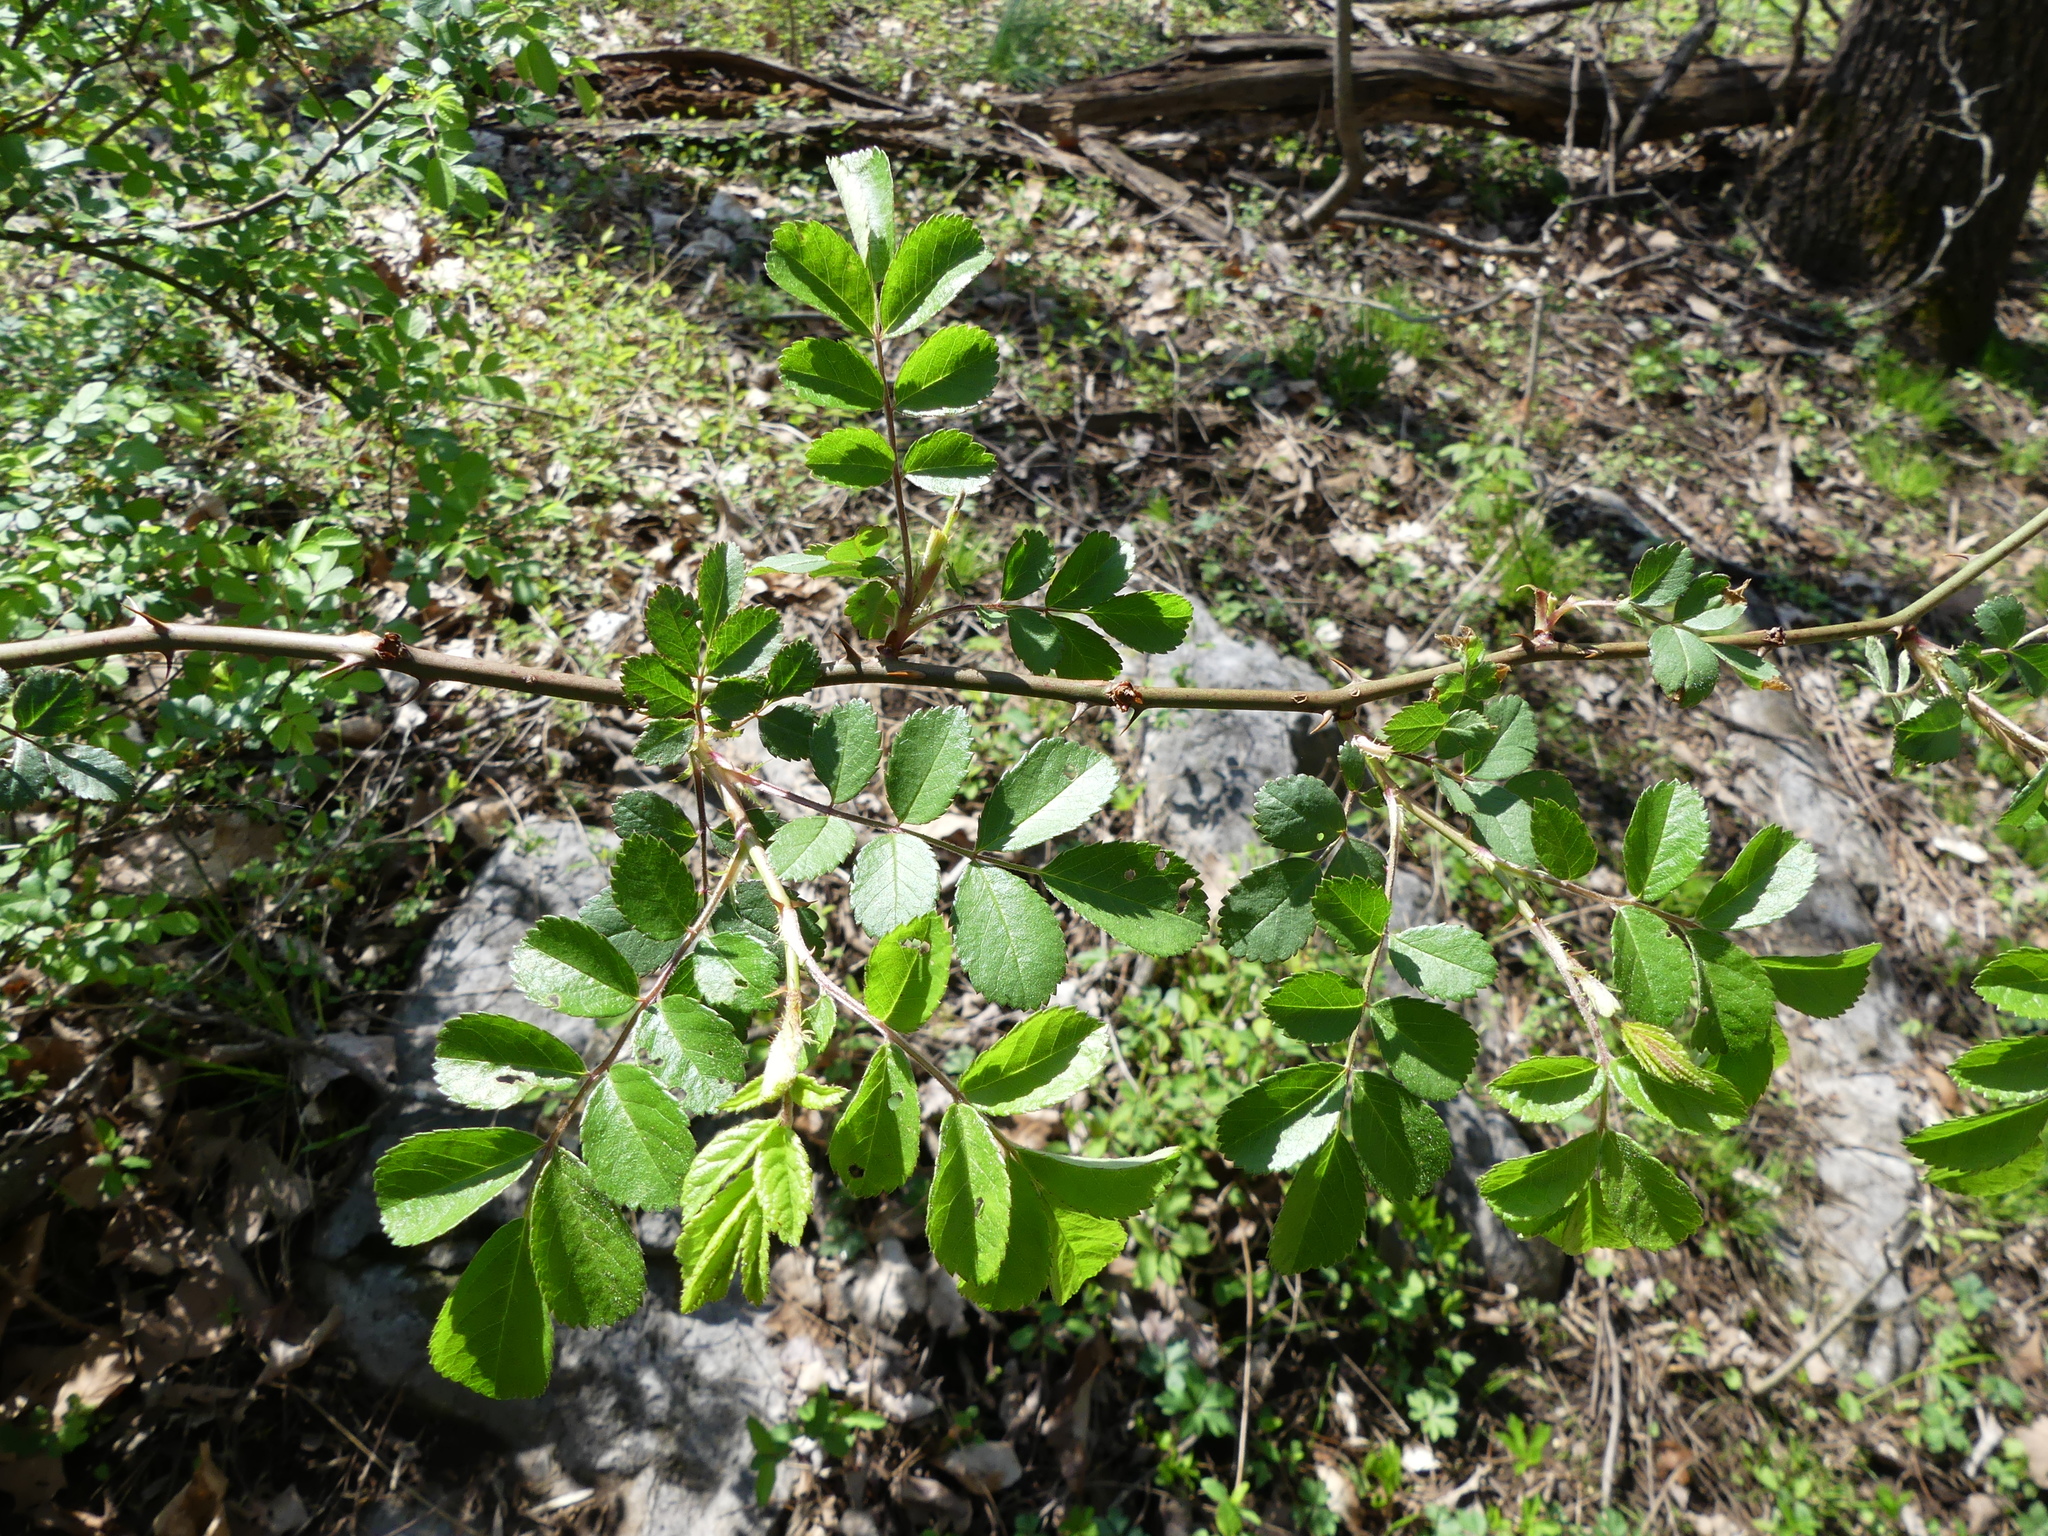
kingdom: Plantae
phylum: Tracheophyta
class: Magnoliopsida
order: Rosales
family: Rosaceae
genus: Rosa
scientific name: Rosa multiflora
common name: Multiflora rose
